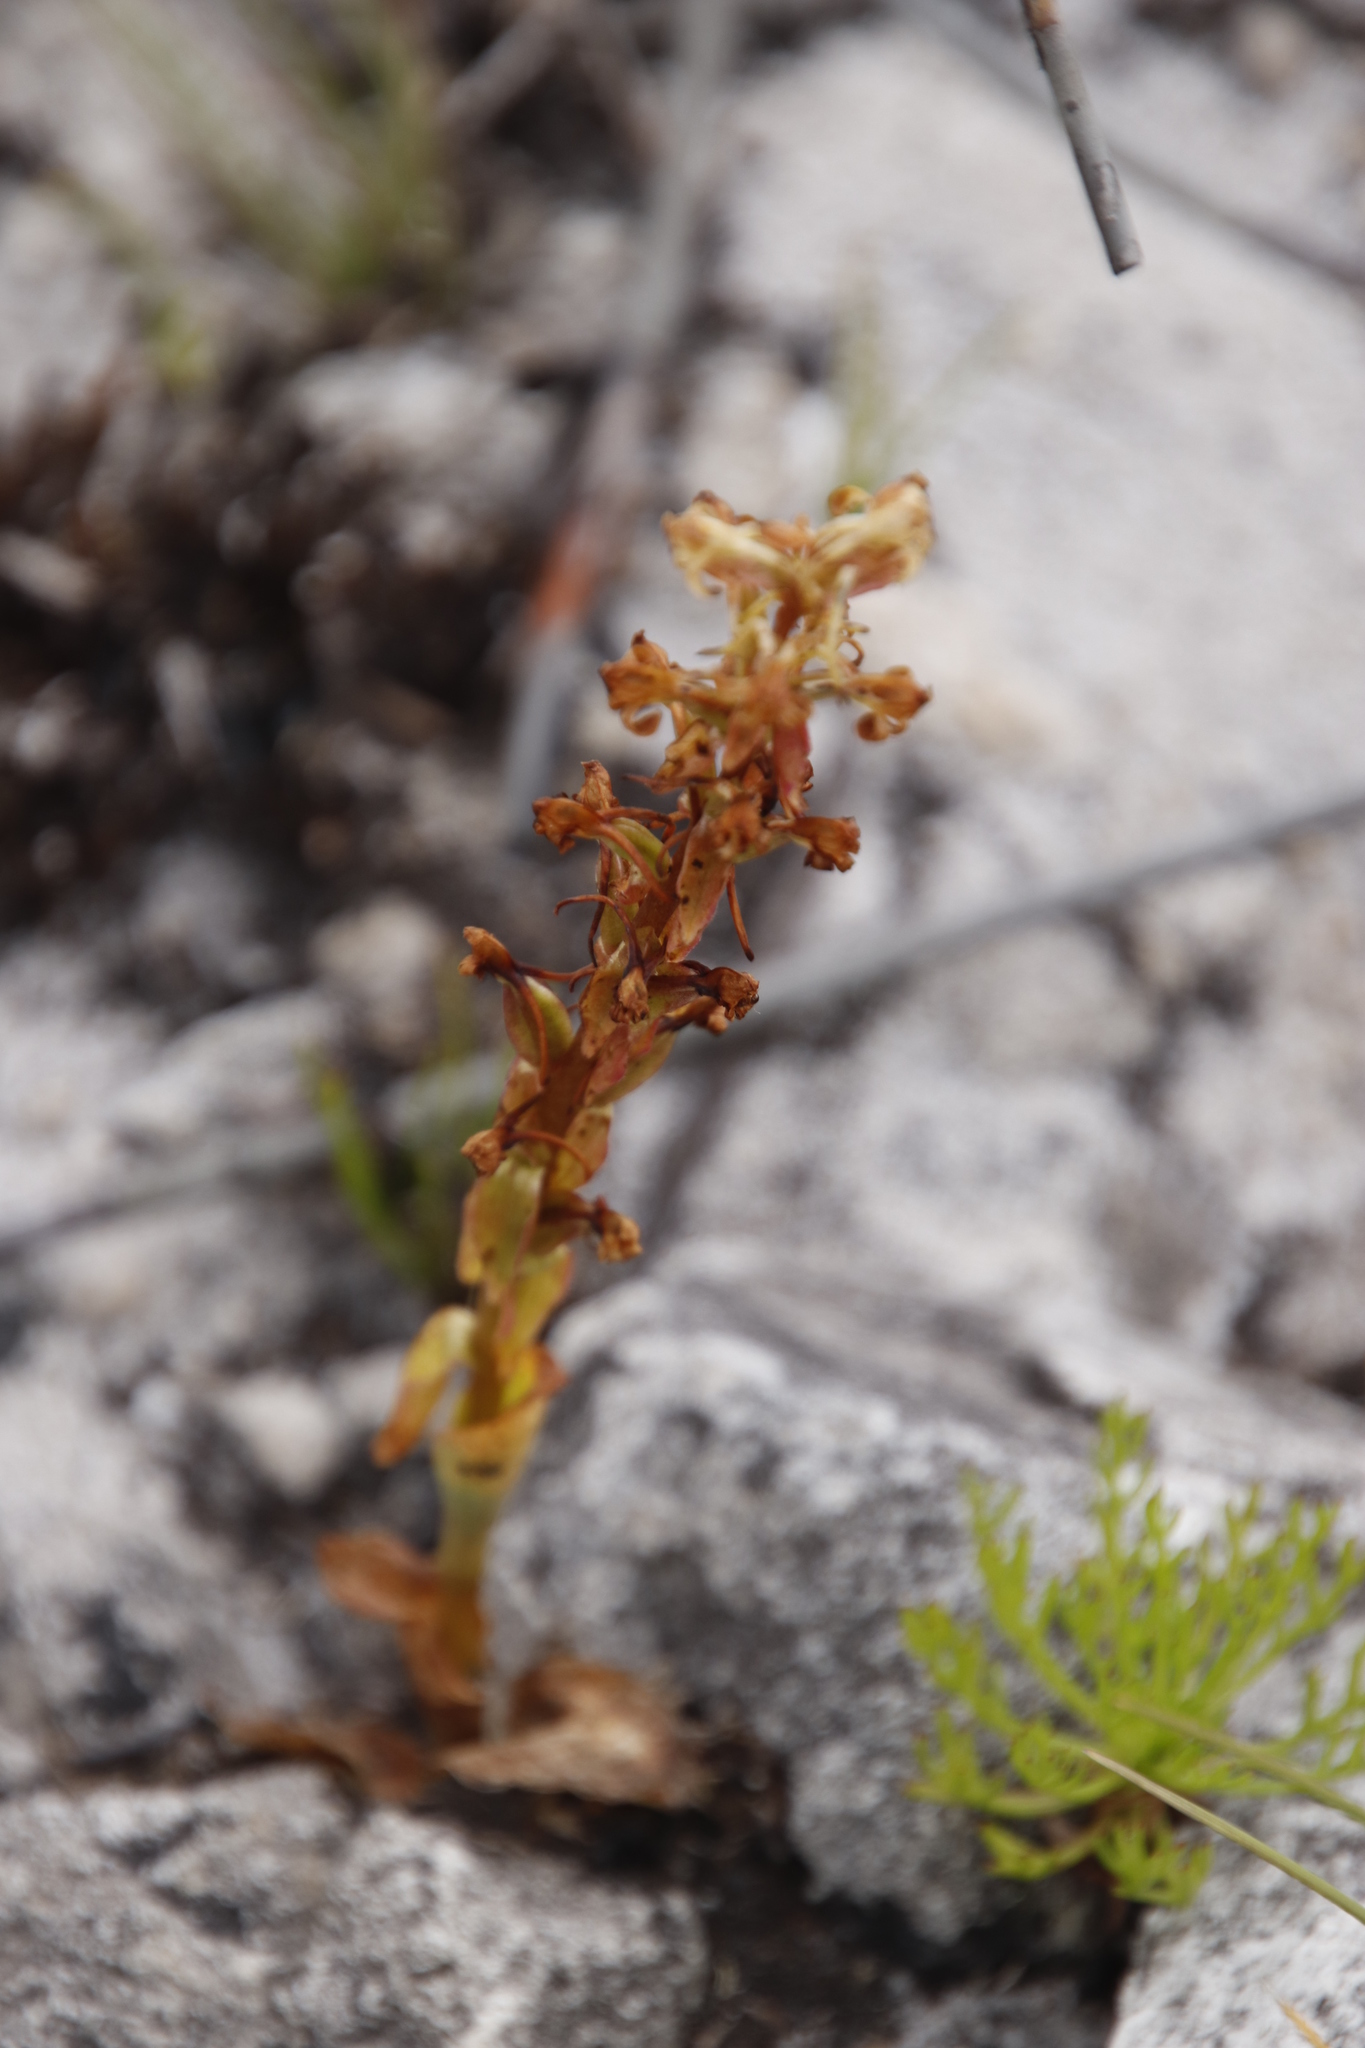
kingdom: Plantae
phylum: Tracheophyta
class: Liliopsida
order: Asparagales
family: Orchidaceae
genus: Satyrium
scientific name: Satyrium humile
